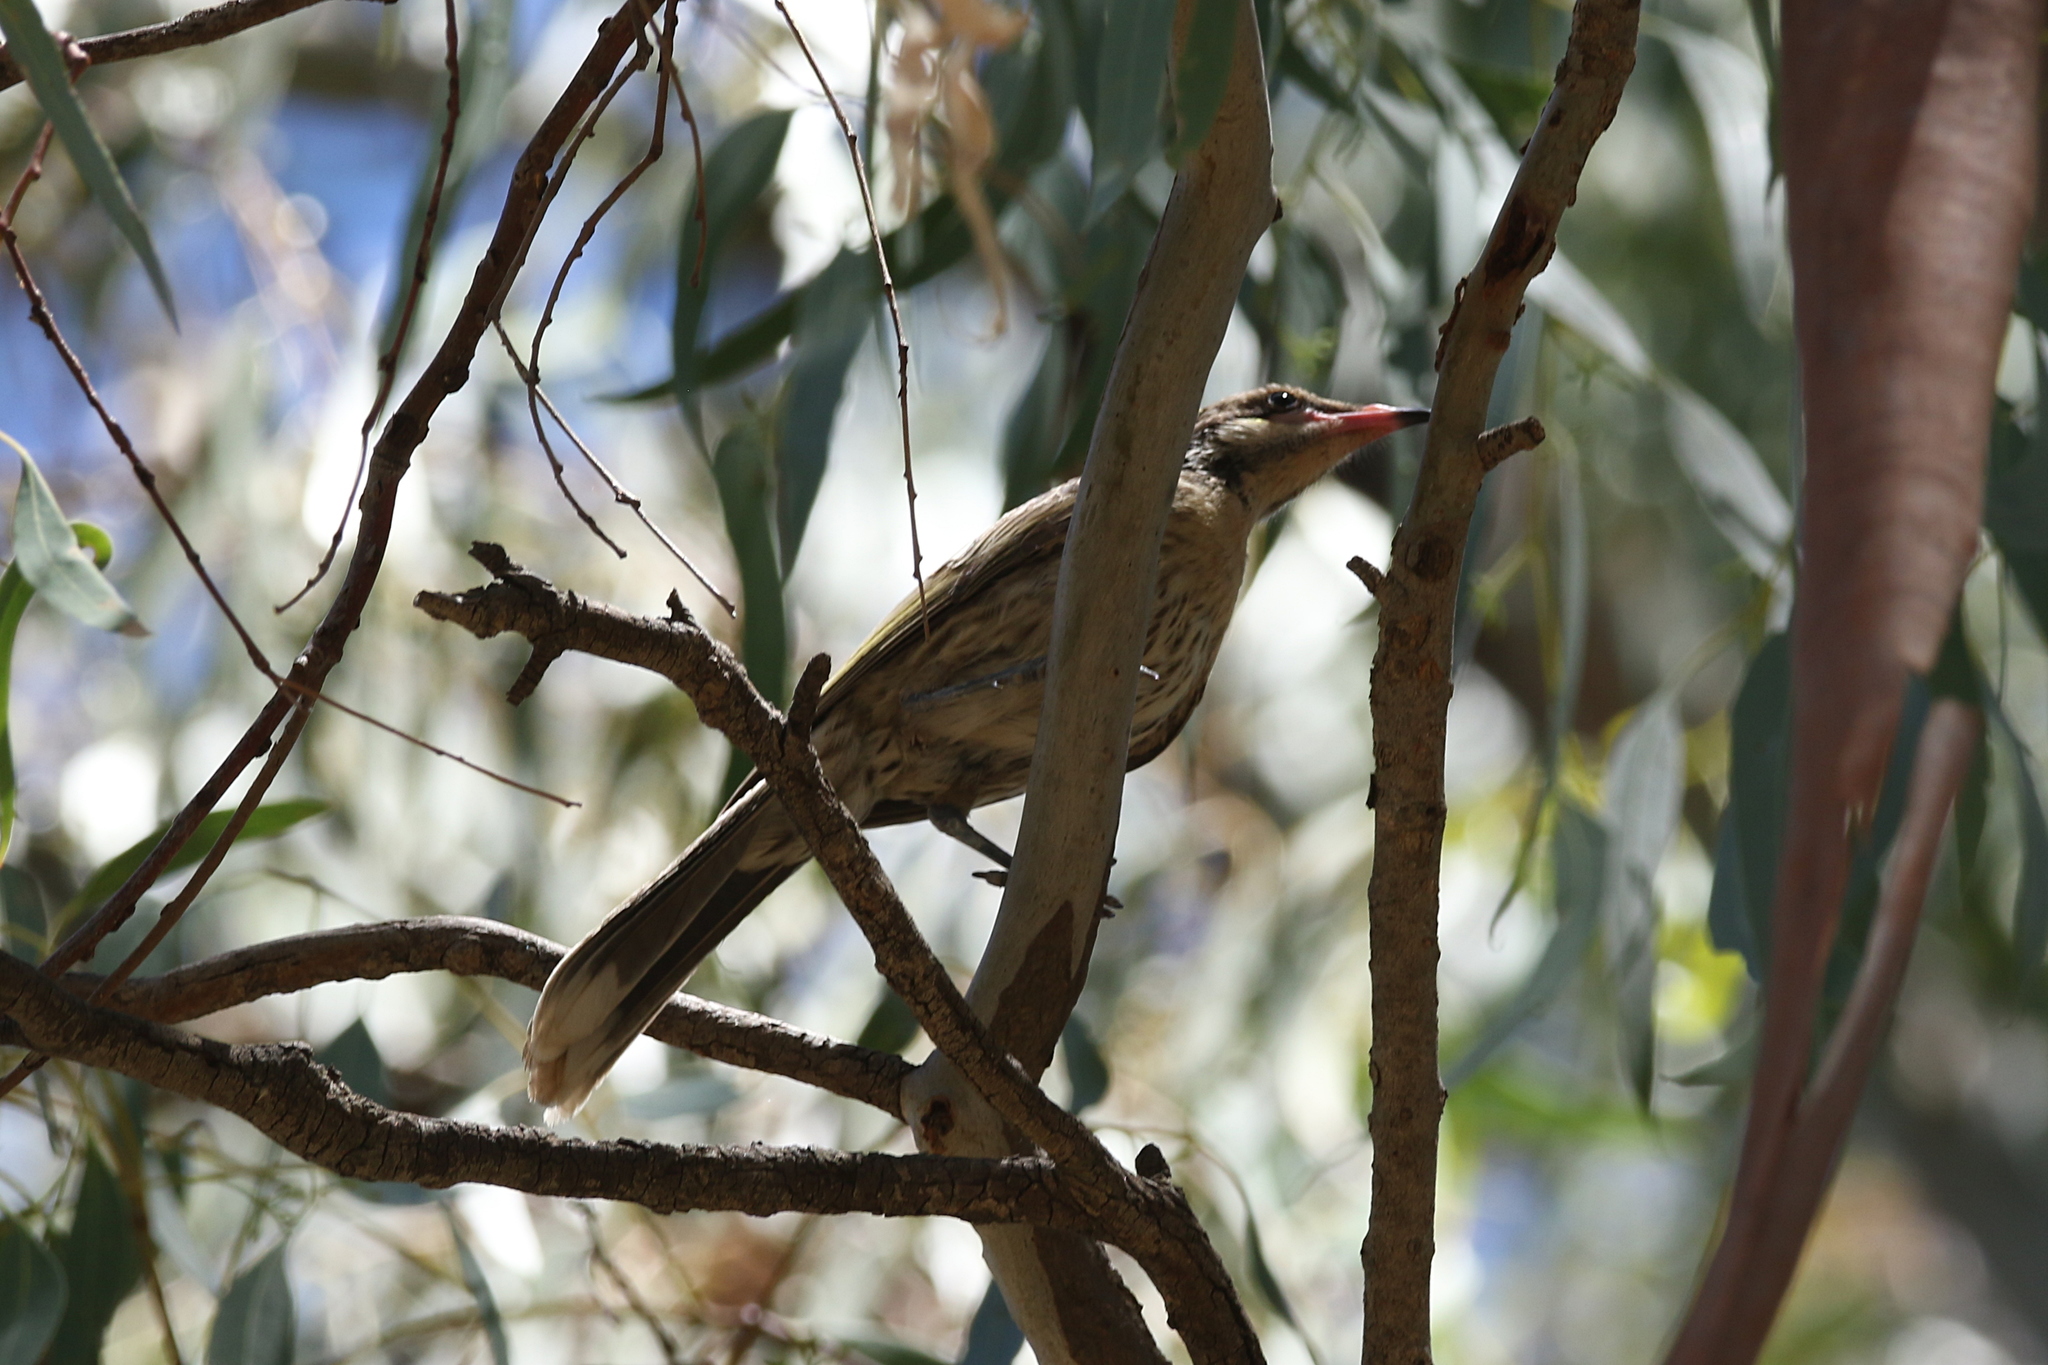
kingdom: Animalia
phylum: Chordata
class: Aves
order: Passeriformes
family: Meliphagidae
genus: Acanthagenys
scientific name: Acanthagenys rufogularis
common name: Spiny-cheeked honeyeater
